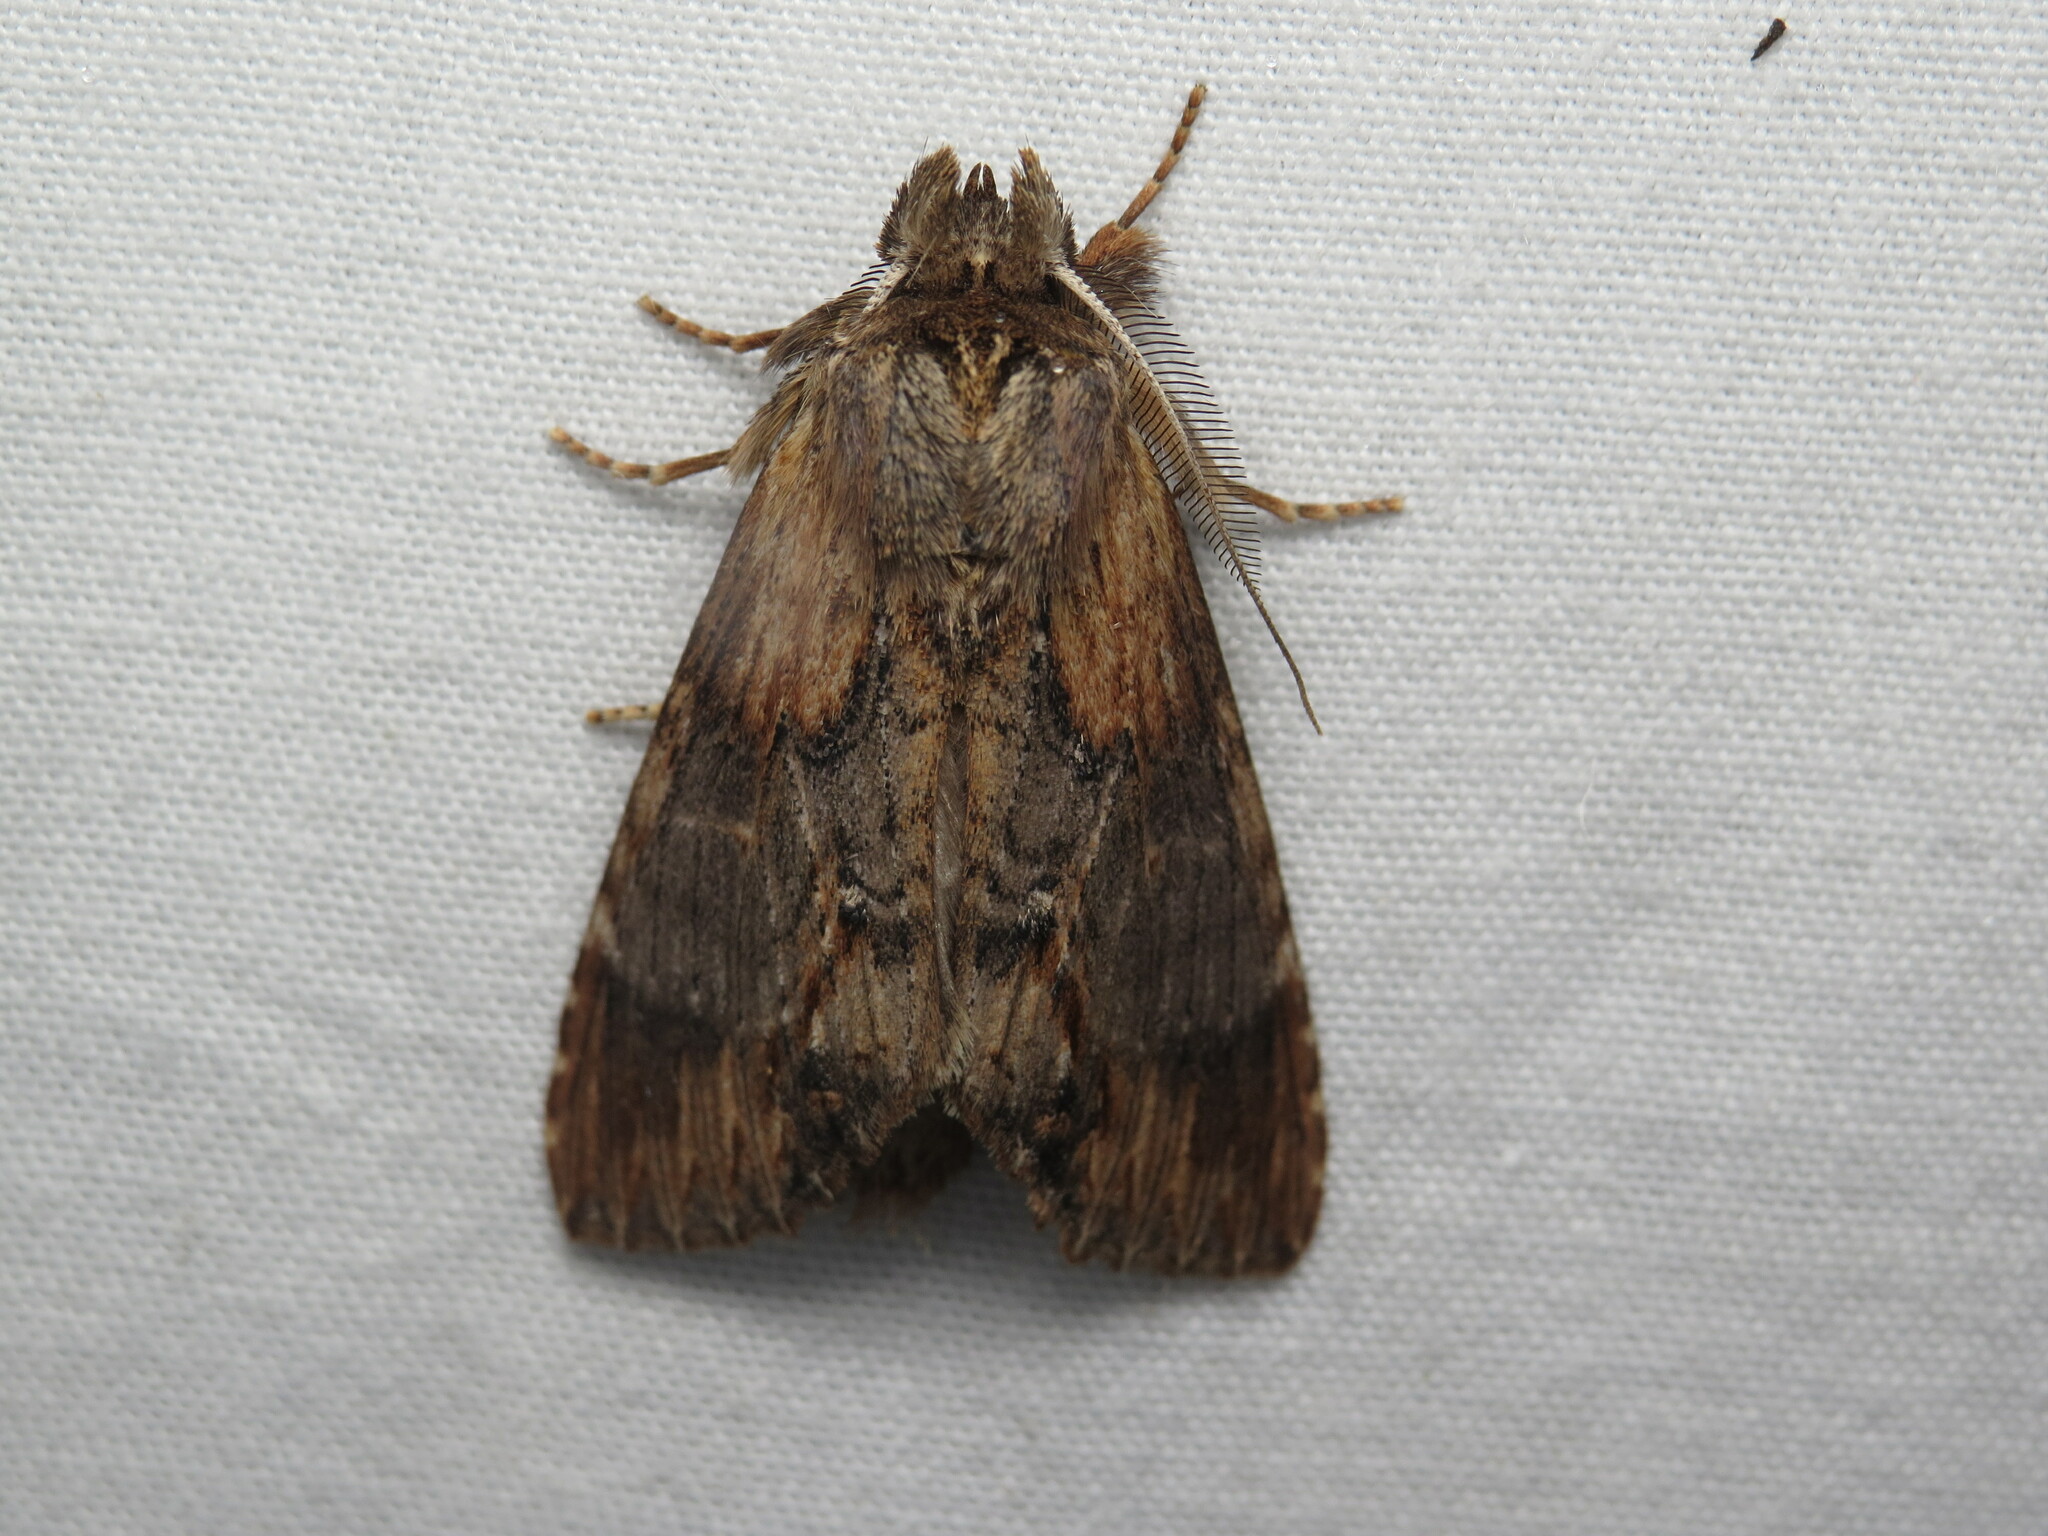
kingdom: Animalia
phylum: Arthropoda
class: Insecta
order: Lepidoptera
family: Notodontidae
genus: Dasylophia
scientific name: Dasylophia thyatiroides
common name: Gray-patched prominent
